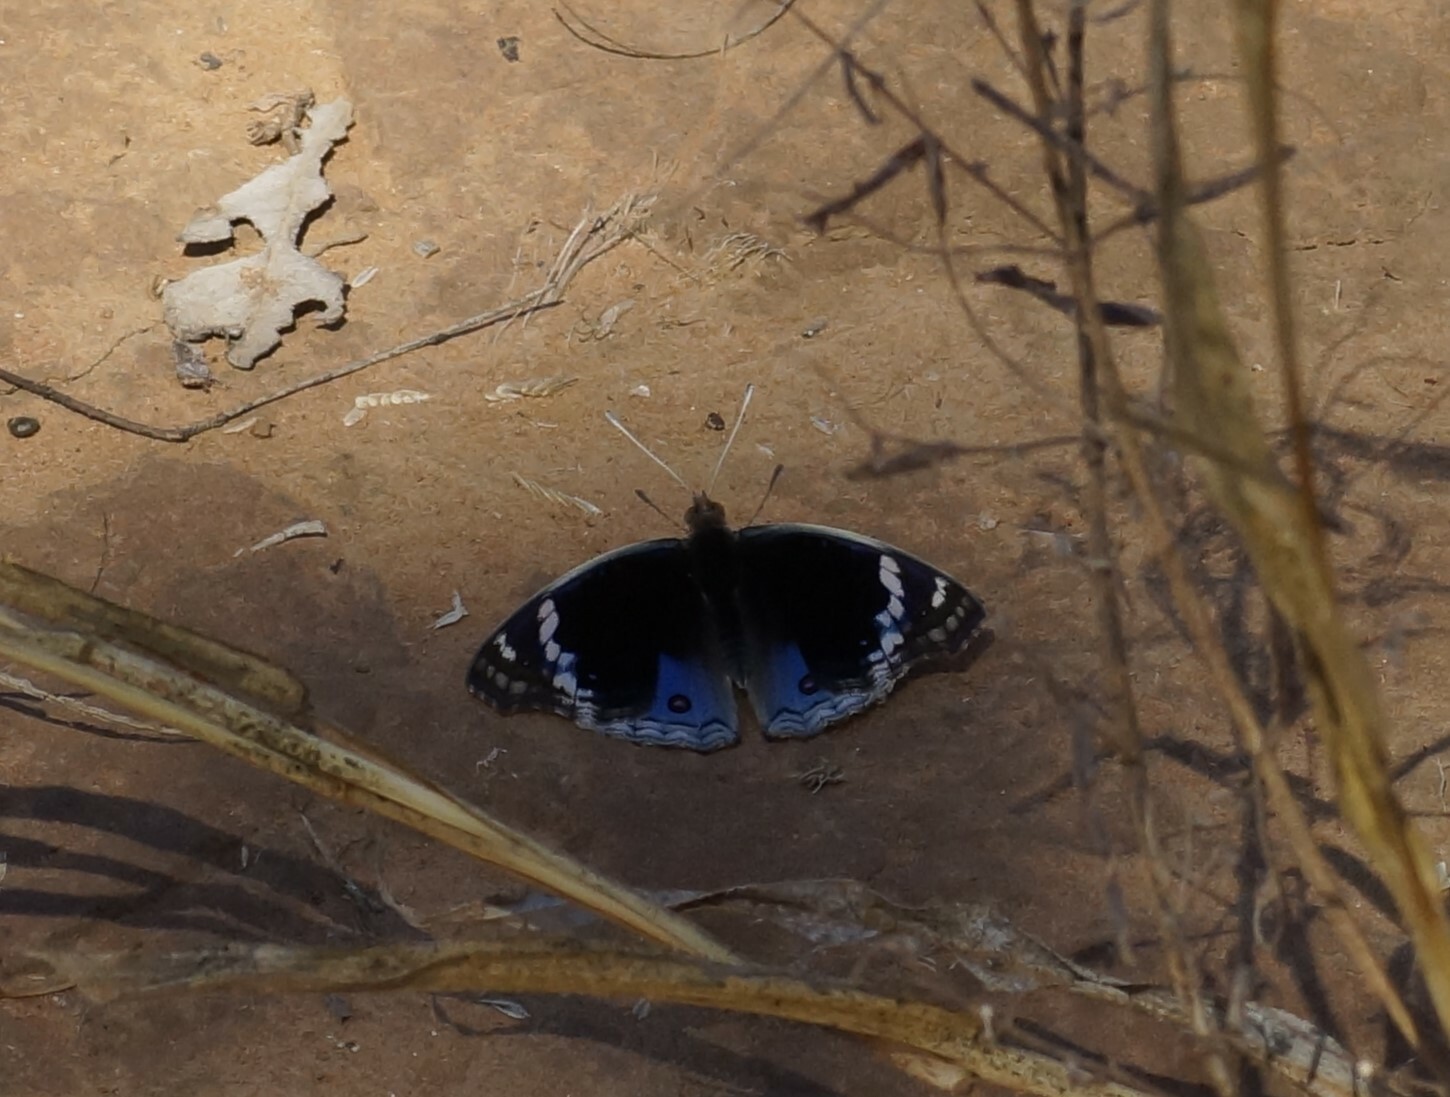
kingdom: Animalia
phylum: Arthropoda
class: Insecta
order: Lepidoptera
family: Nymphalidae
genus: Junonia
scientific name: Junonia orithya
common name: Blue pansy
